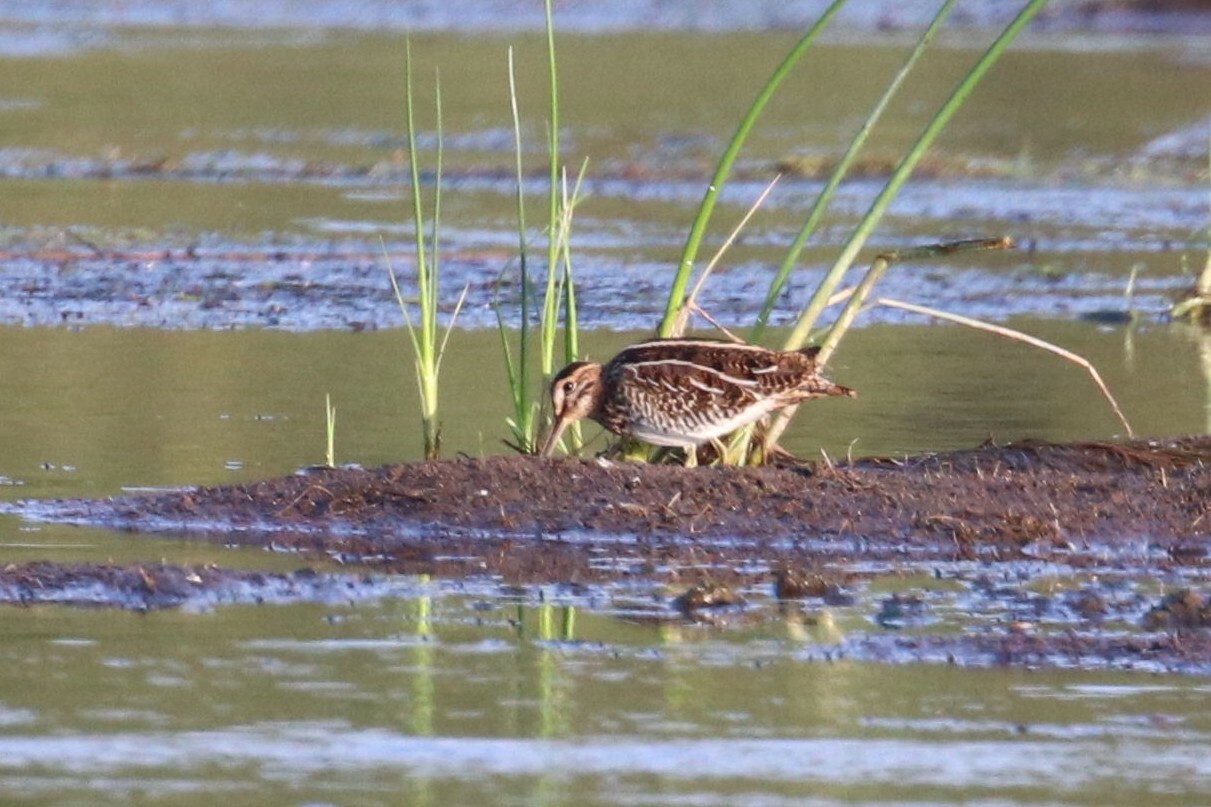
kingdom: Animalia
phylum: Chordata
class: Aves
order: Charadriiformes
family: Scolopacidae
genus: Gallinago
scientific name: Gallinago gallinago
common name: Common snipe
